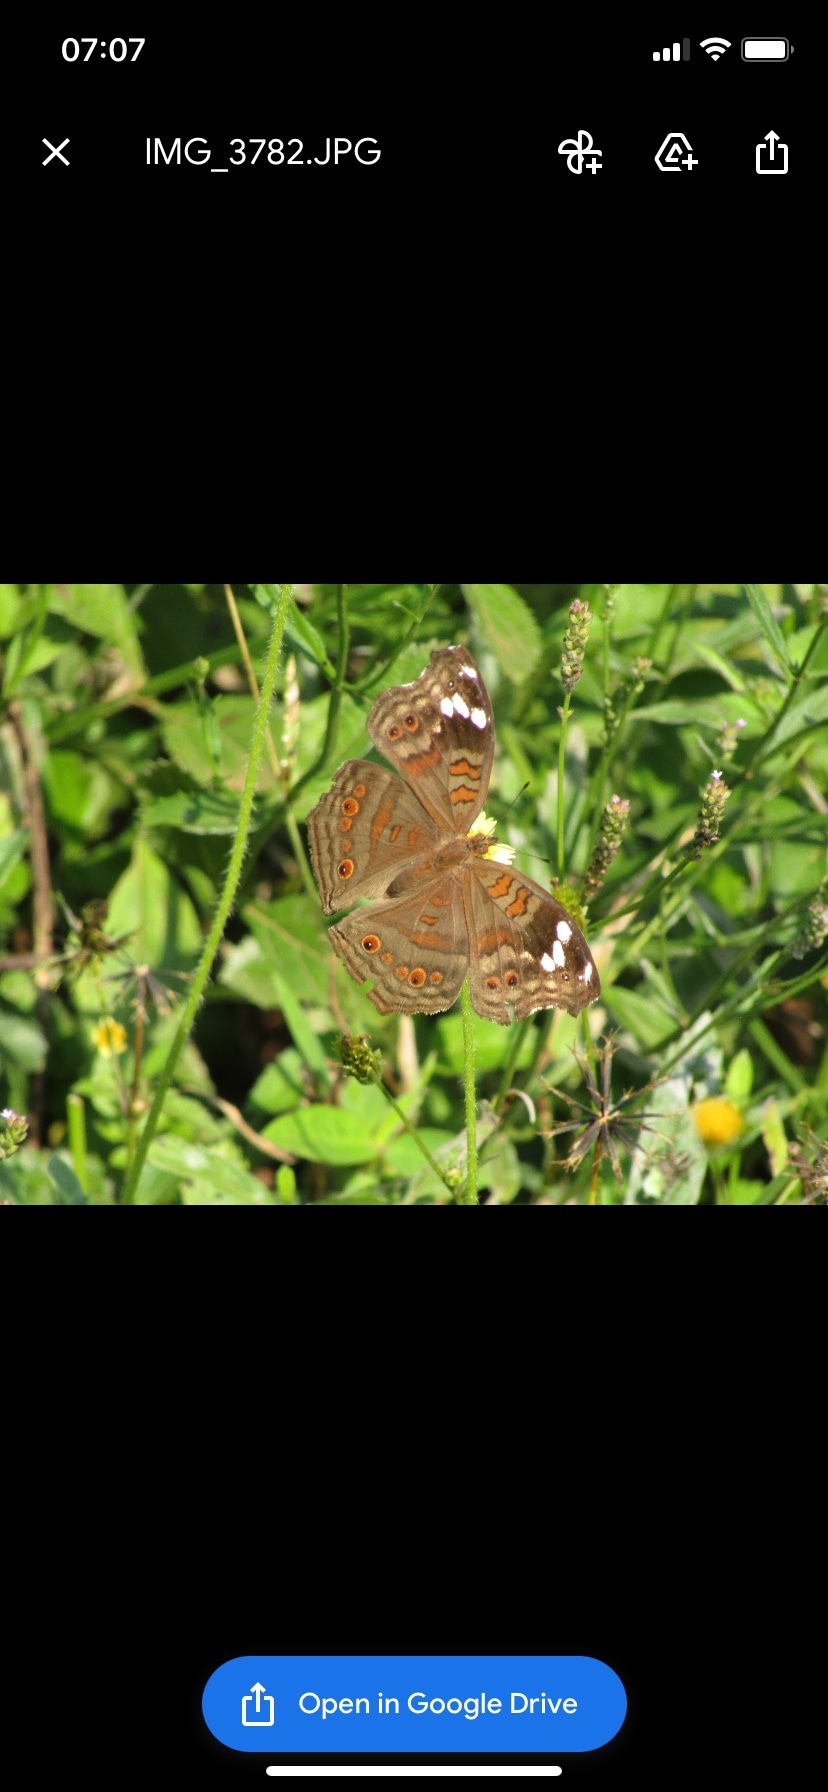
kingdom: Animalia
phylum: Arthropoda
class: Insecta
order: Lepidoptera
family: Nymphalidae
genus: Junonia
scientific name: Junonia natalica
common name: Brown pansy
